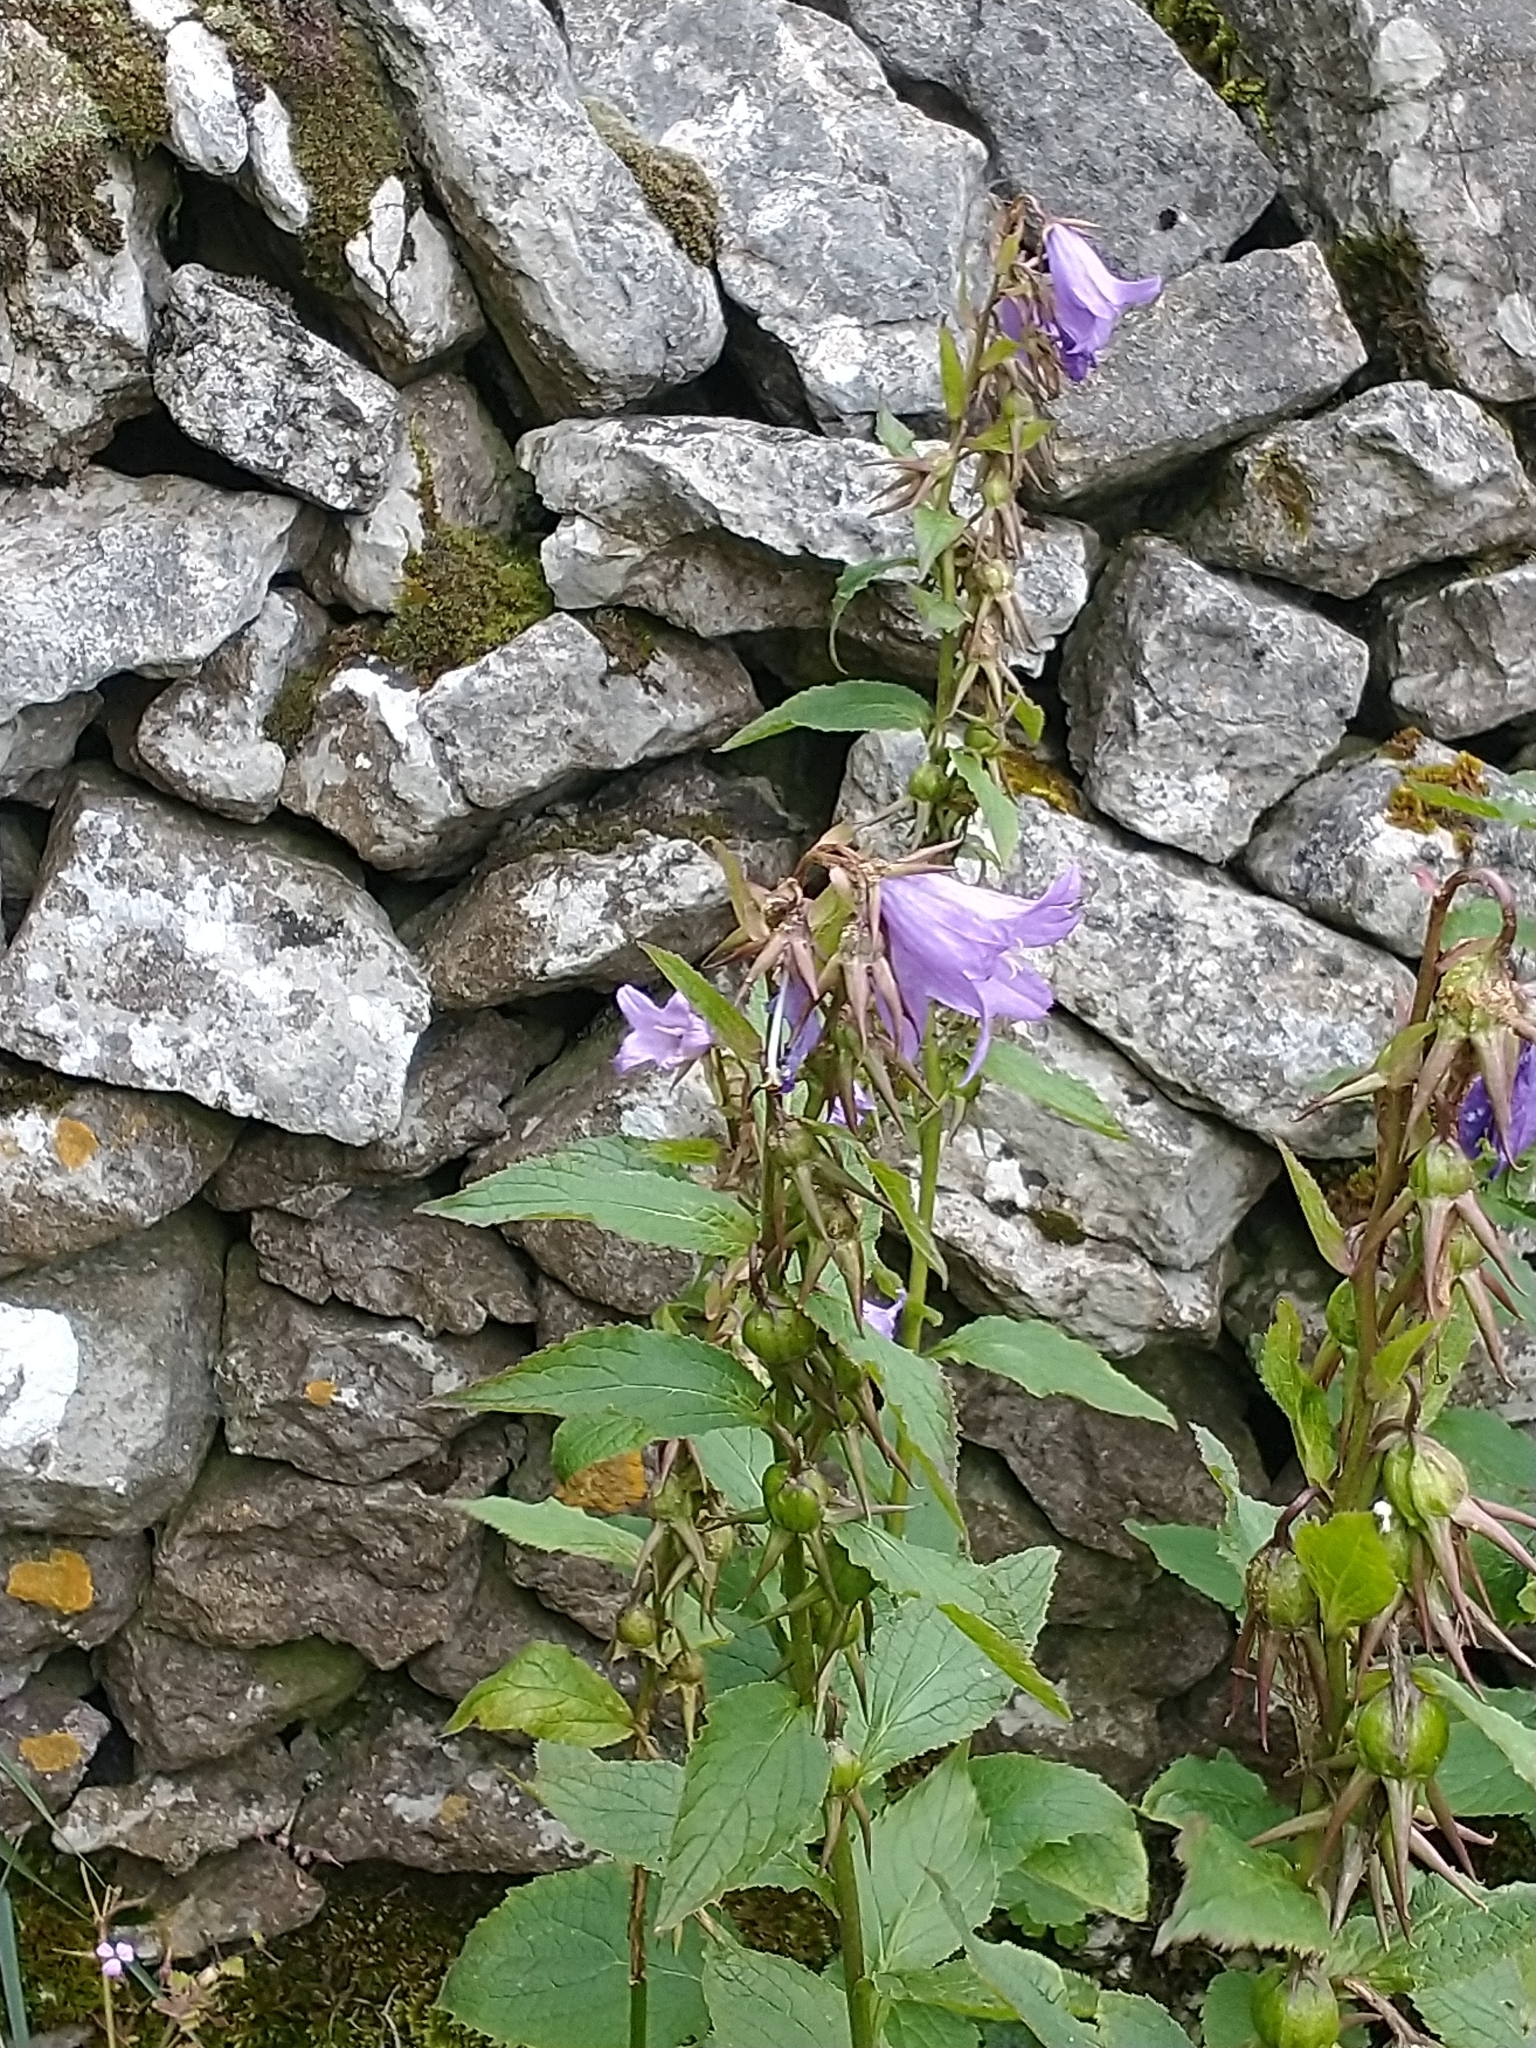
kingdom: Plantae
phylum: Tracheophyta
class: Magnoliopsida
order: Asterales
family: Campanulaceae
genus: Campanula
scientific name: Campanula latifolia
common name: Giant bellflower
